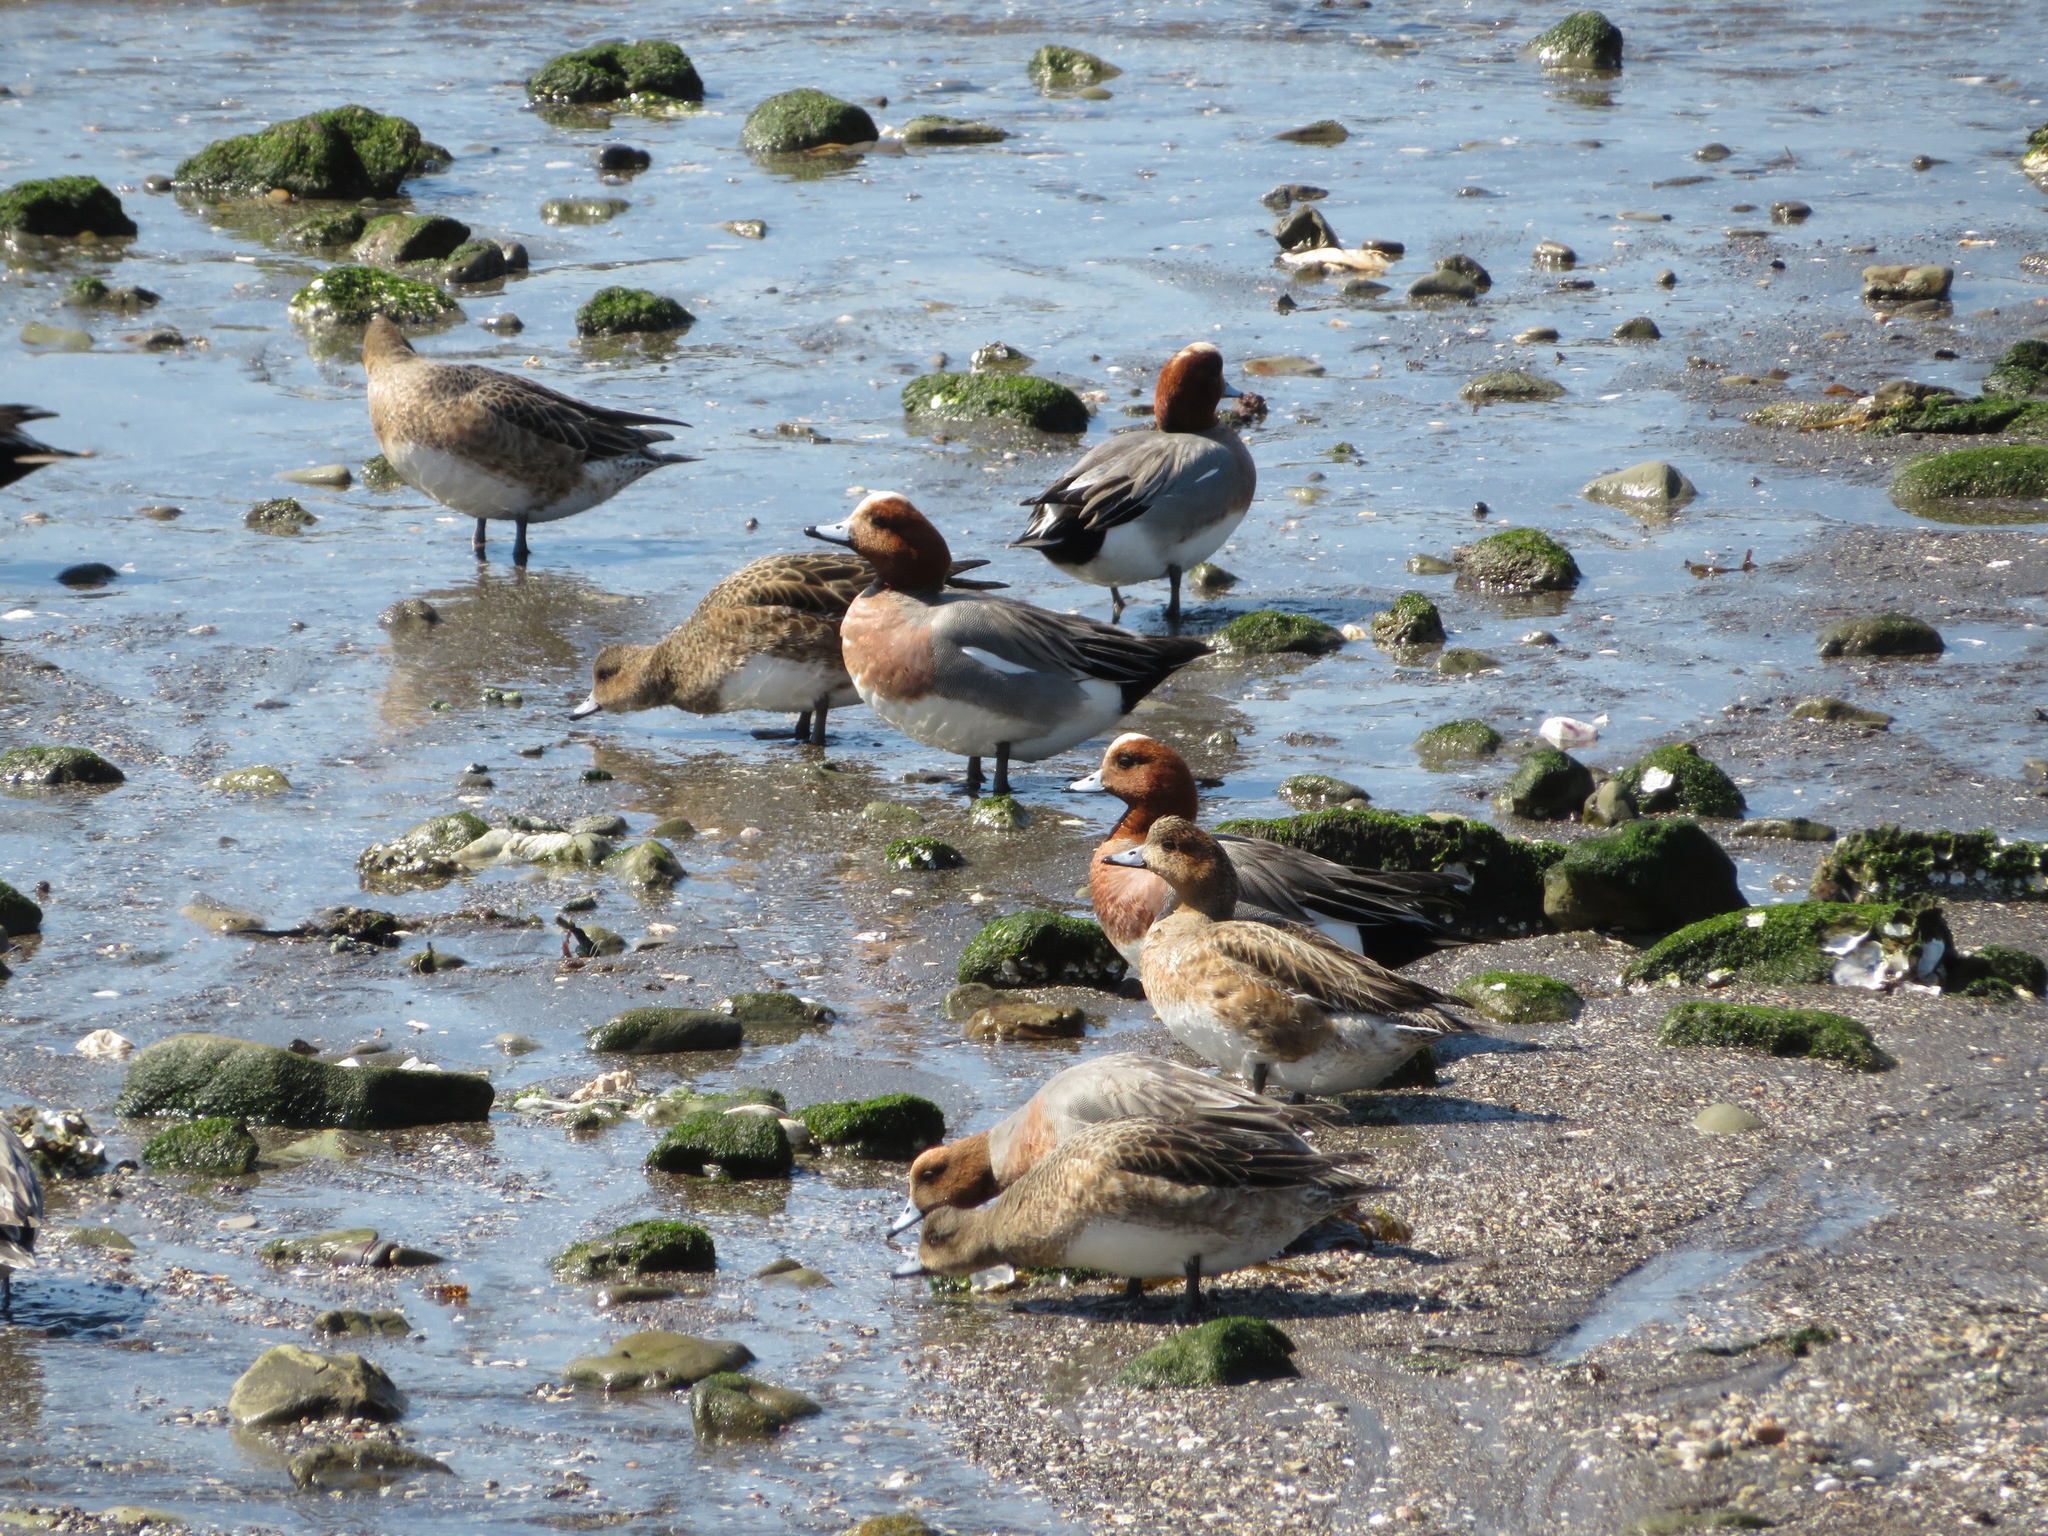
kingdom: Animalia
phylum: Chordata
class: Aves
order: Anseriformes
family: Anatidae
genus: Mareca
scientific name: Mareca penelope
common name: Eurasian wigeon
